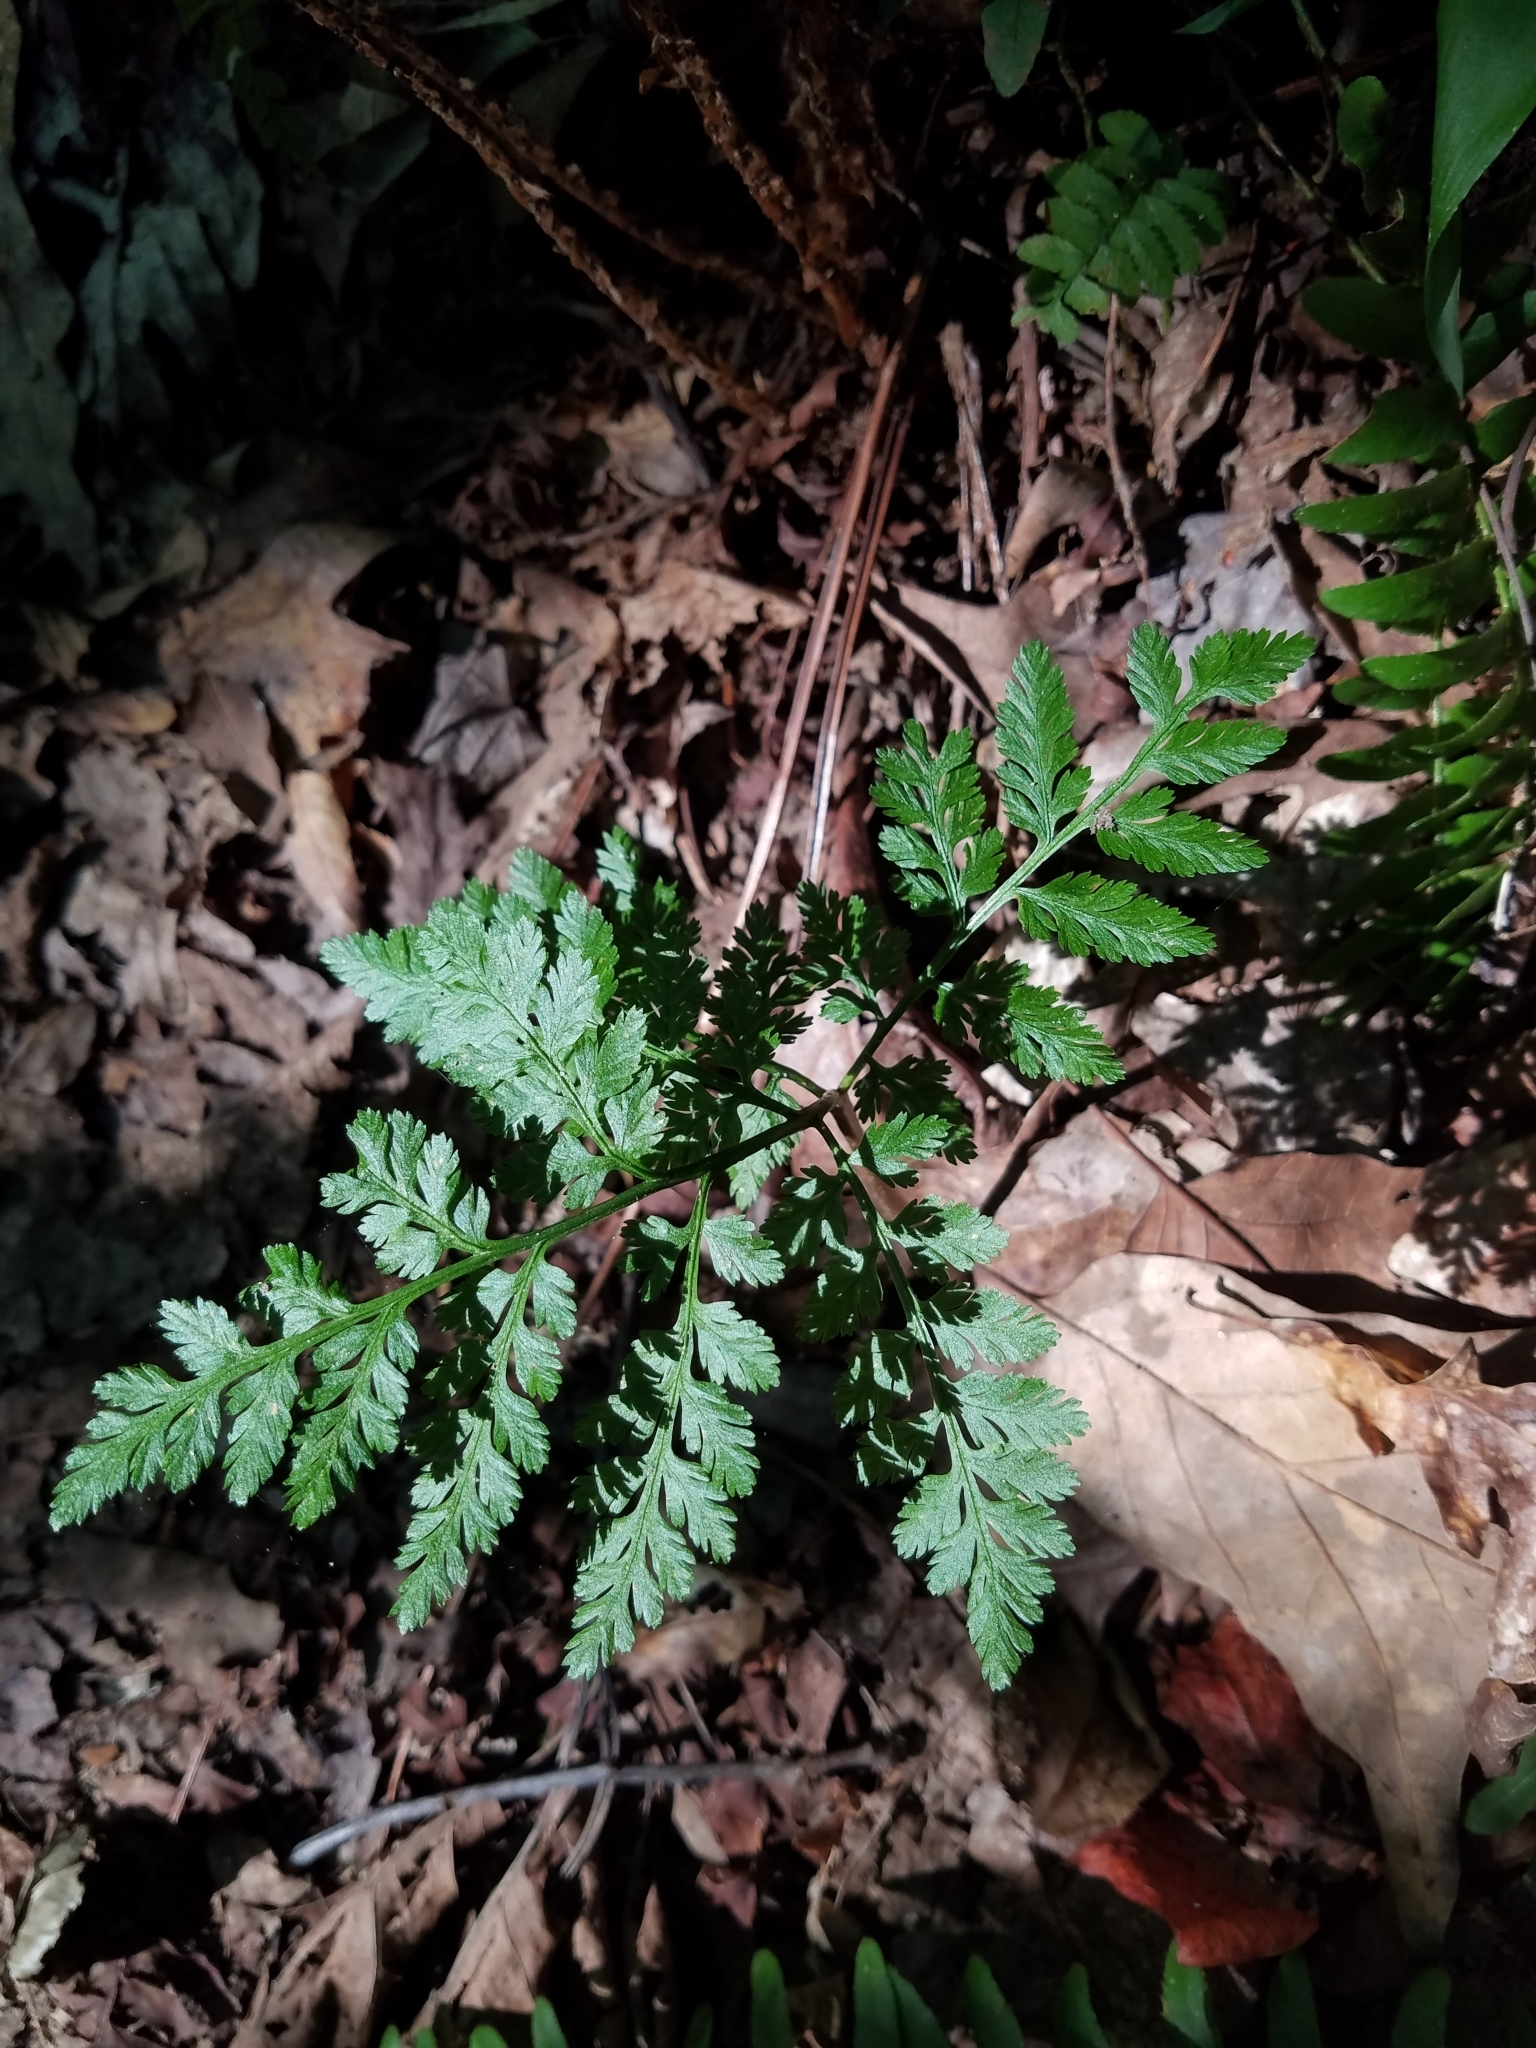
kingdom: Plantae
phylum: Tracheophyta
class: Polypodiopsida
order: Ophioglossales
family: Ophioglossaceae
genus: Botrypus
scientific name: Botrypus virginianus
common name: Common grapefern
